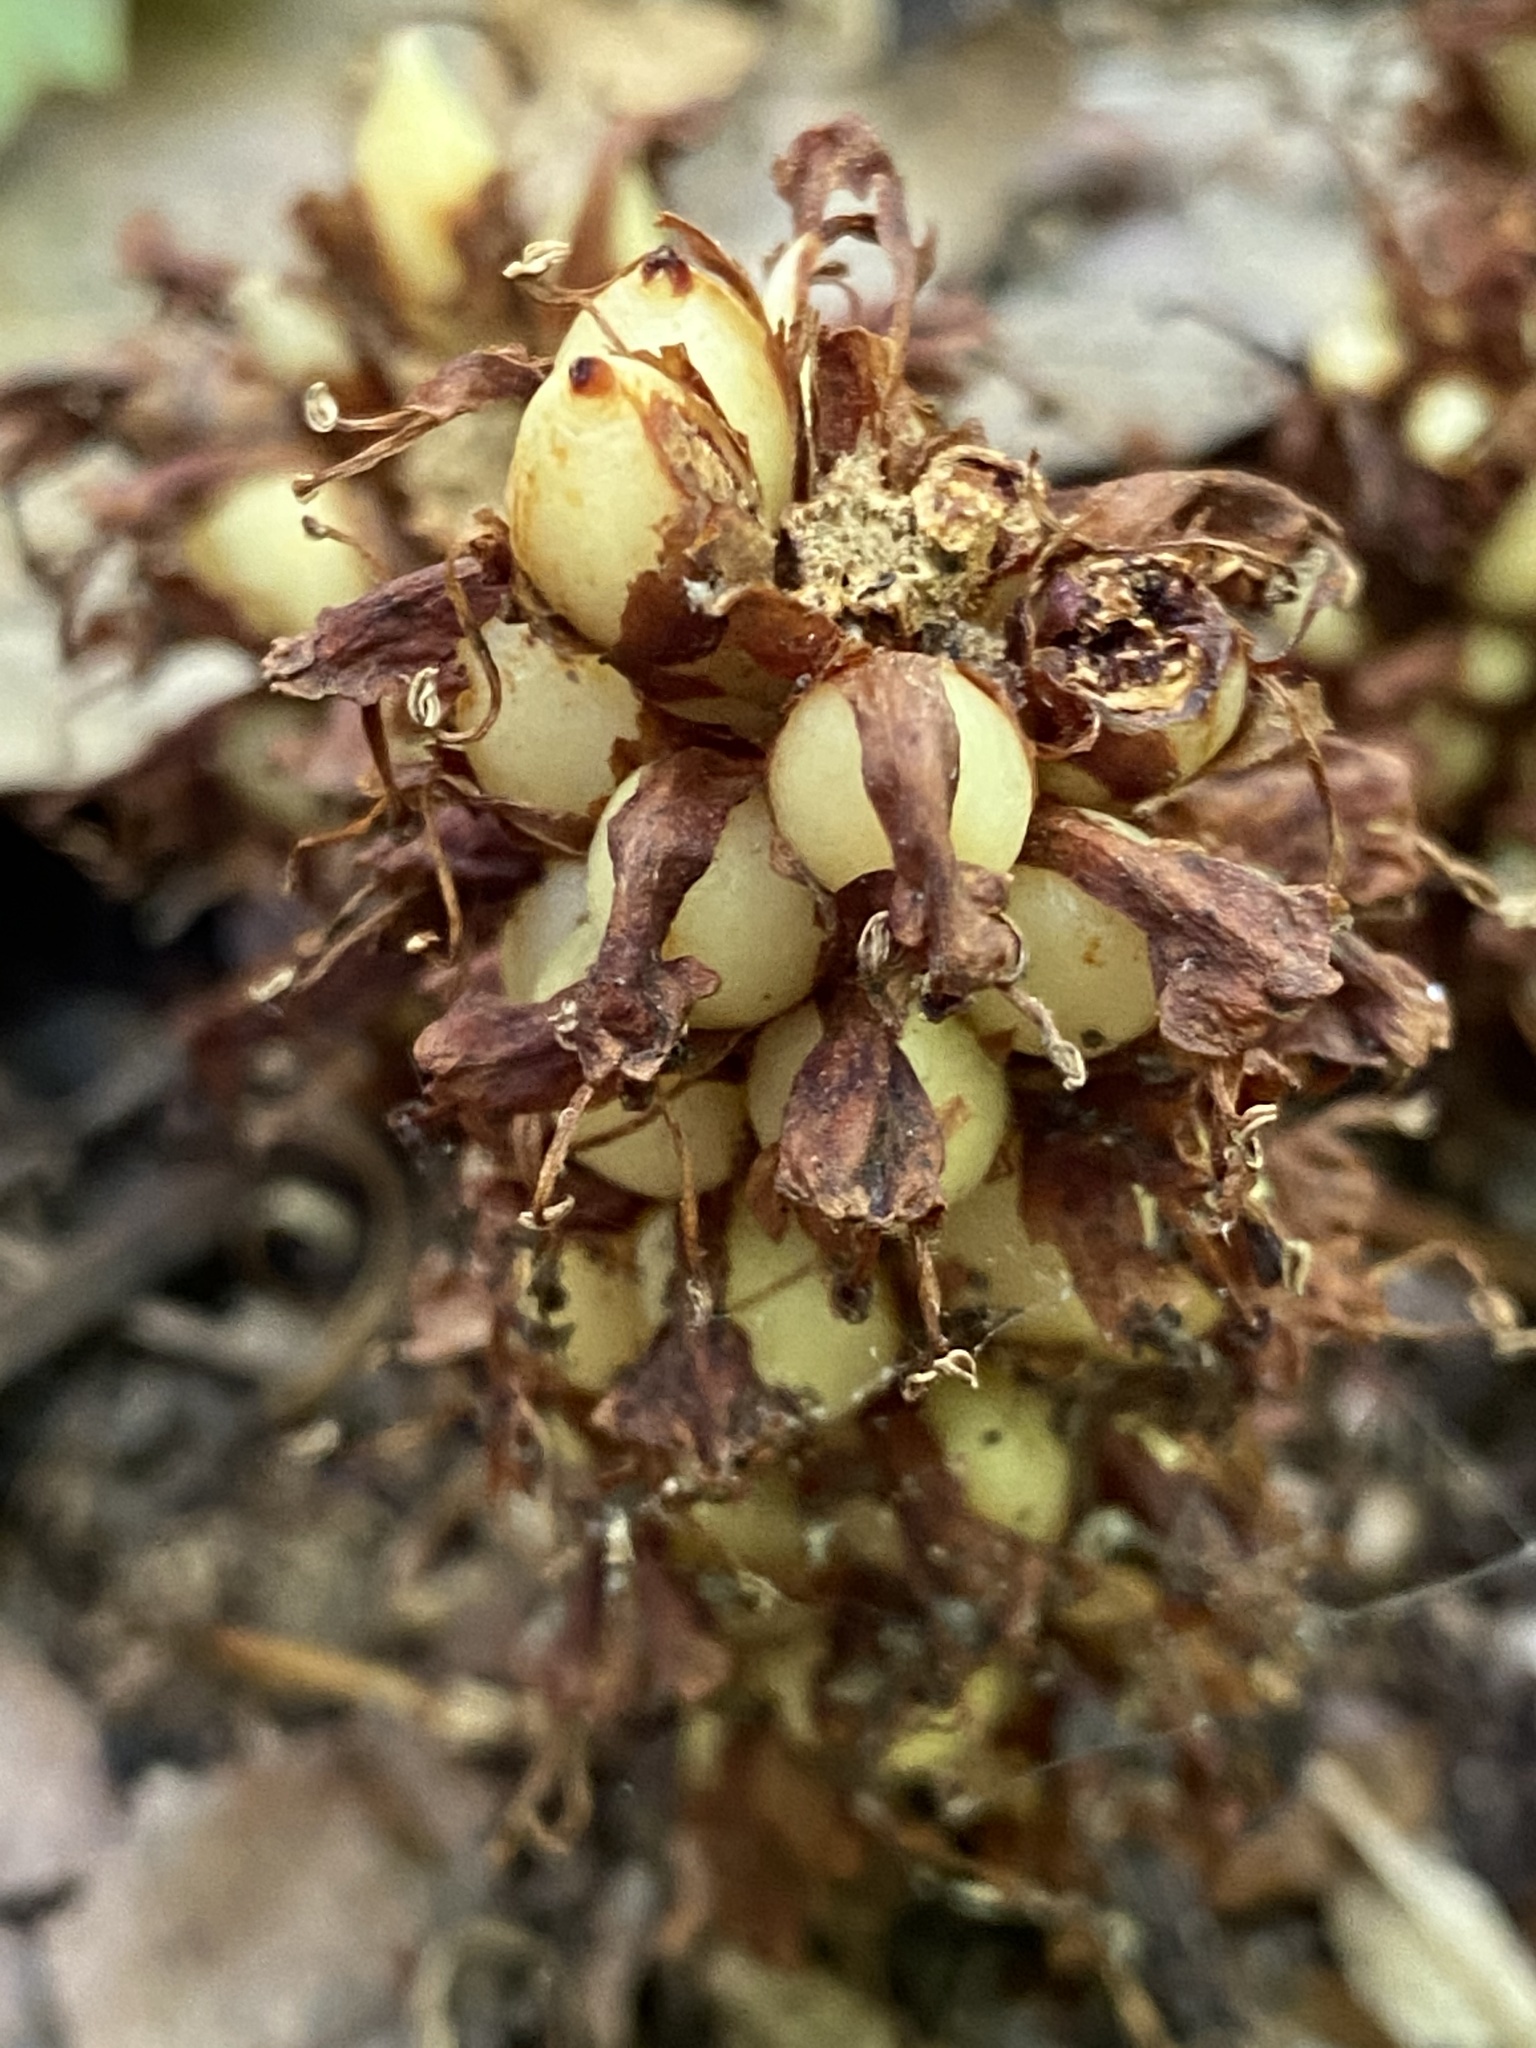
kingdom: Plantae
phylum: Tracheophyta
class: Magnoliopsida
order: Lamiales
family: Orobanchaceae
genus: Conopholis
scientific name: Conopholis americana
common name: American cancer-root
